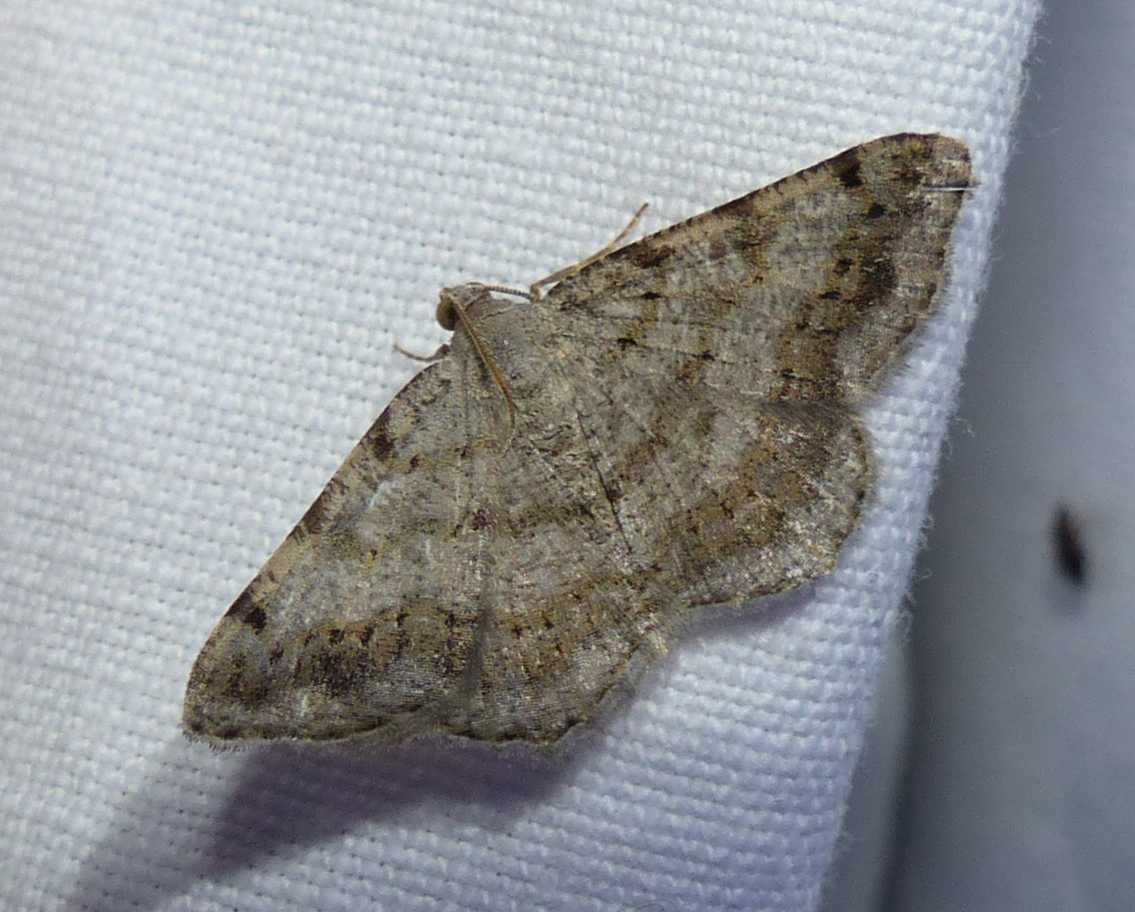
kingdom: Animalia
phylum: Arthropoda
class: Insecta
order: Lepidoptera
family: Geometridae
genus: Digrammia
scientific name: Digrammia ocellinata
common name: Faint-spotted angle
